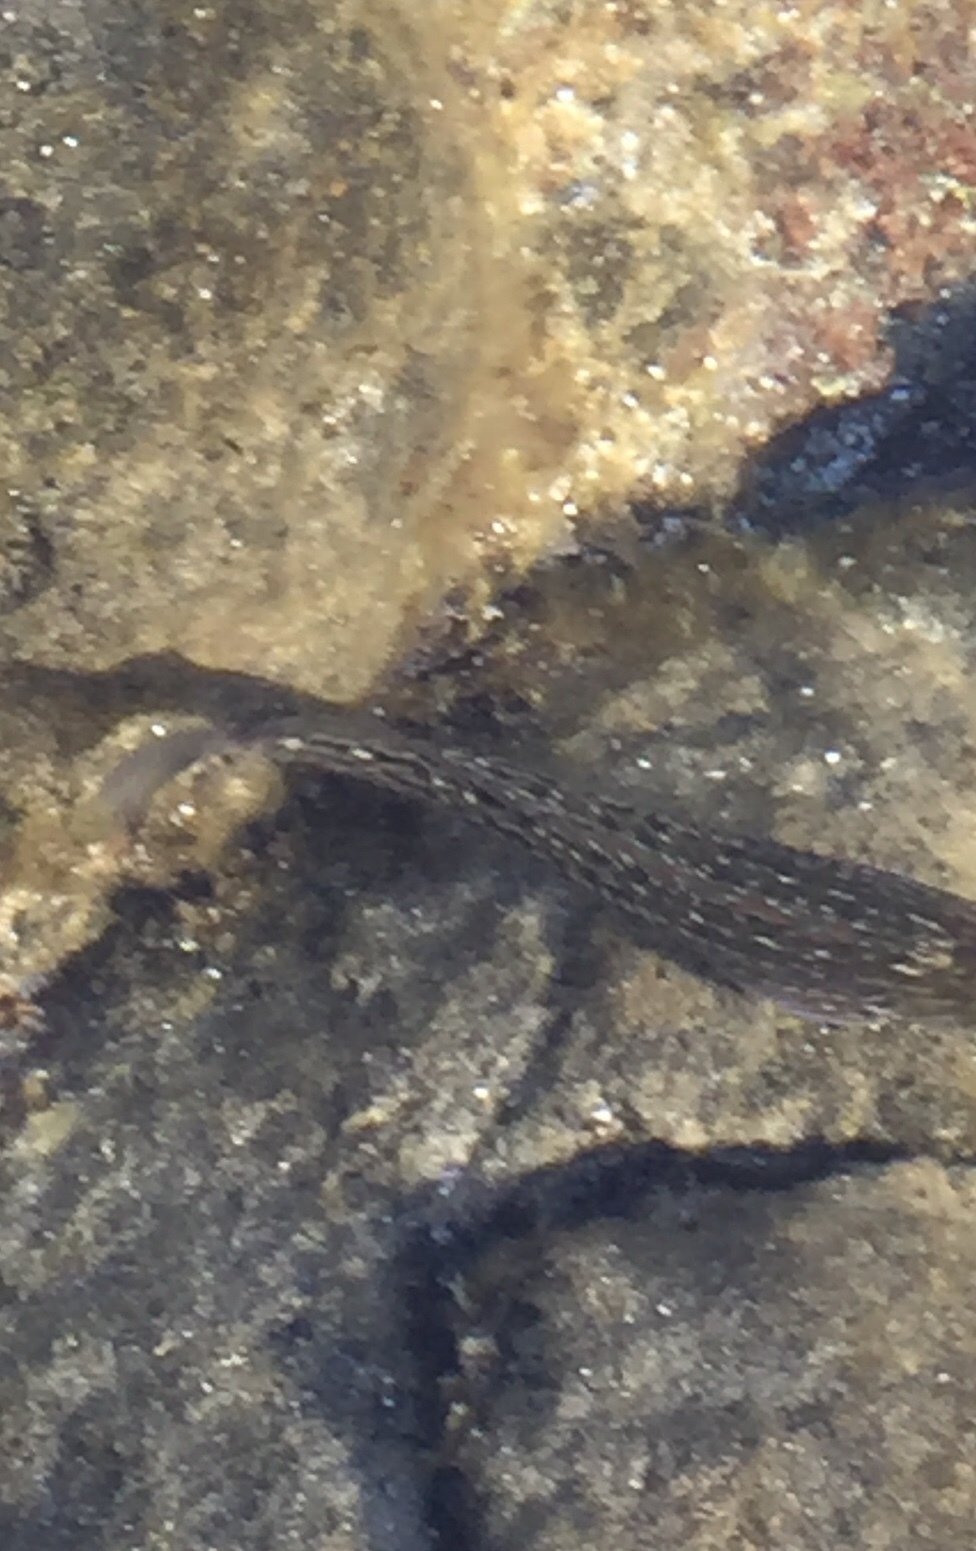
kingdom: Animalia
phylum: Chordata
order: Perciformes
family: Blenniidae
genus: Parablennius
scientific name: Parablennius parvicornis
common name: Rock-pool blenny
